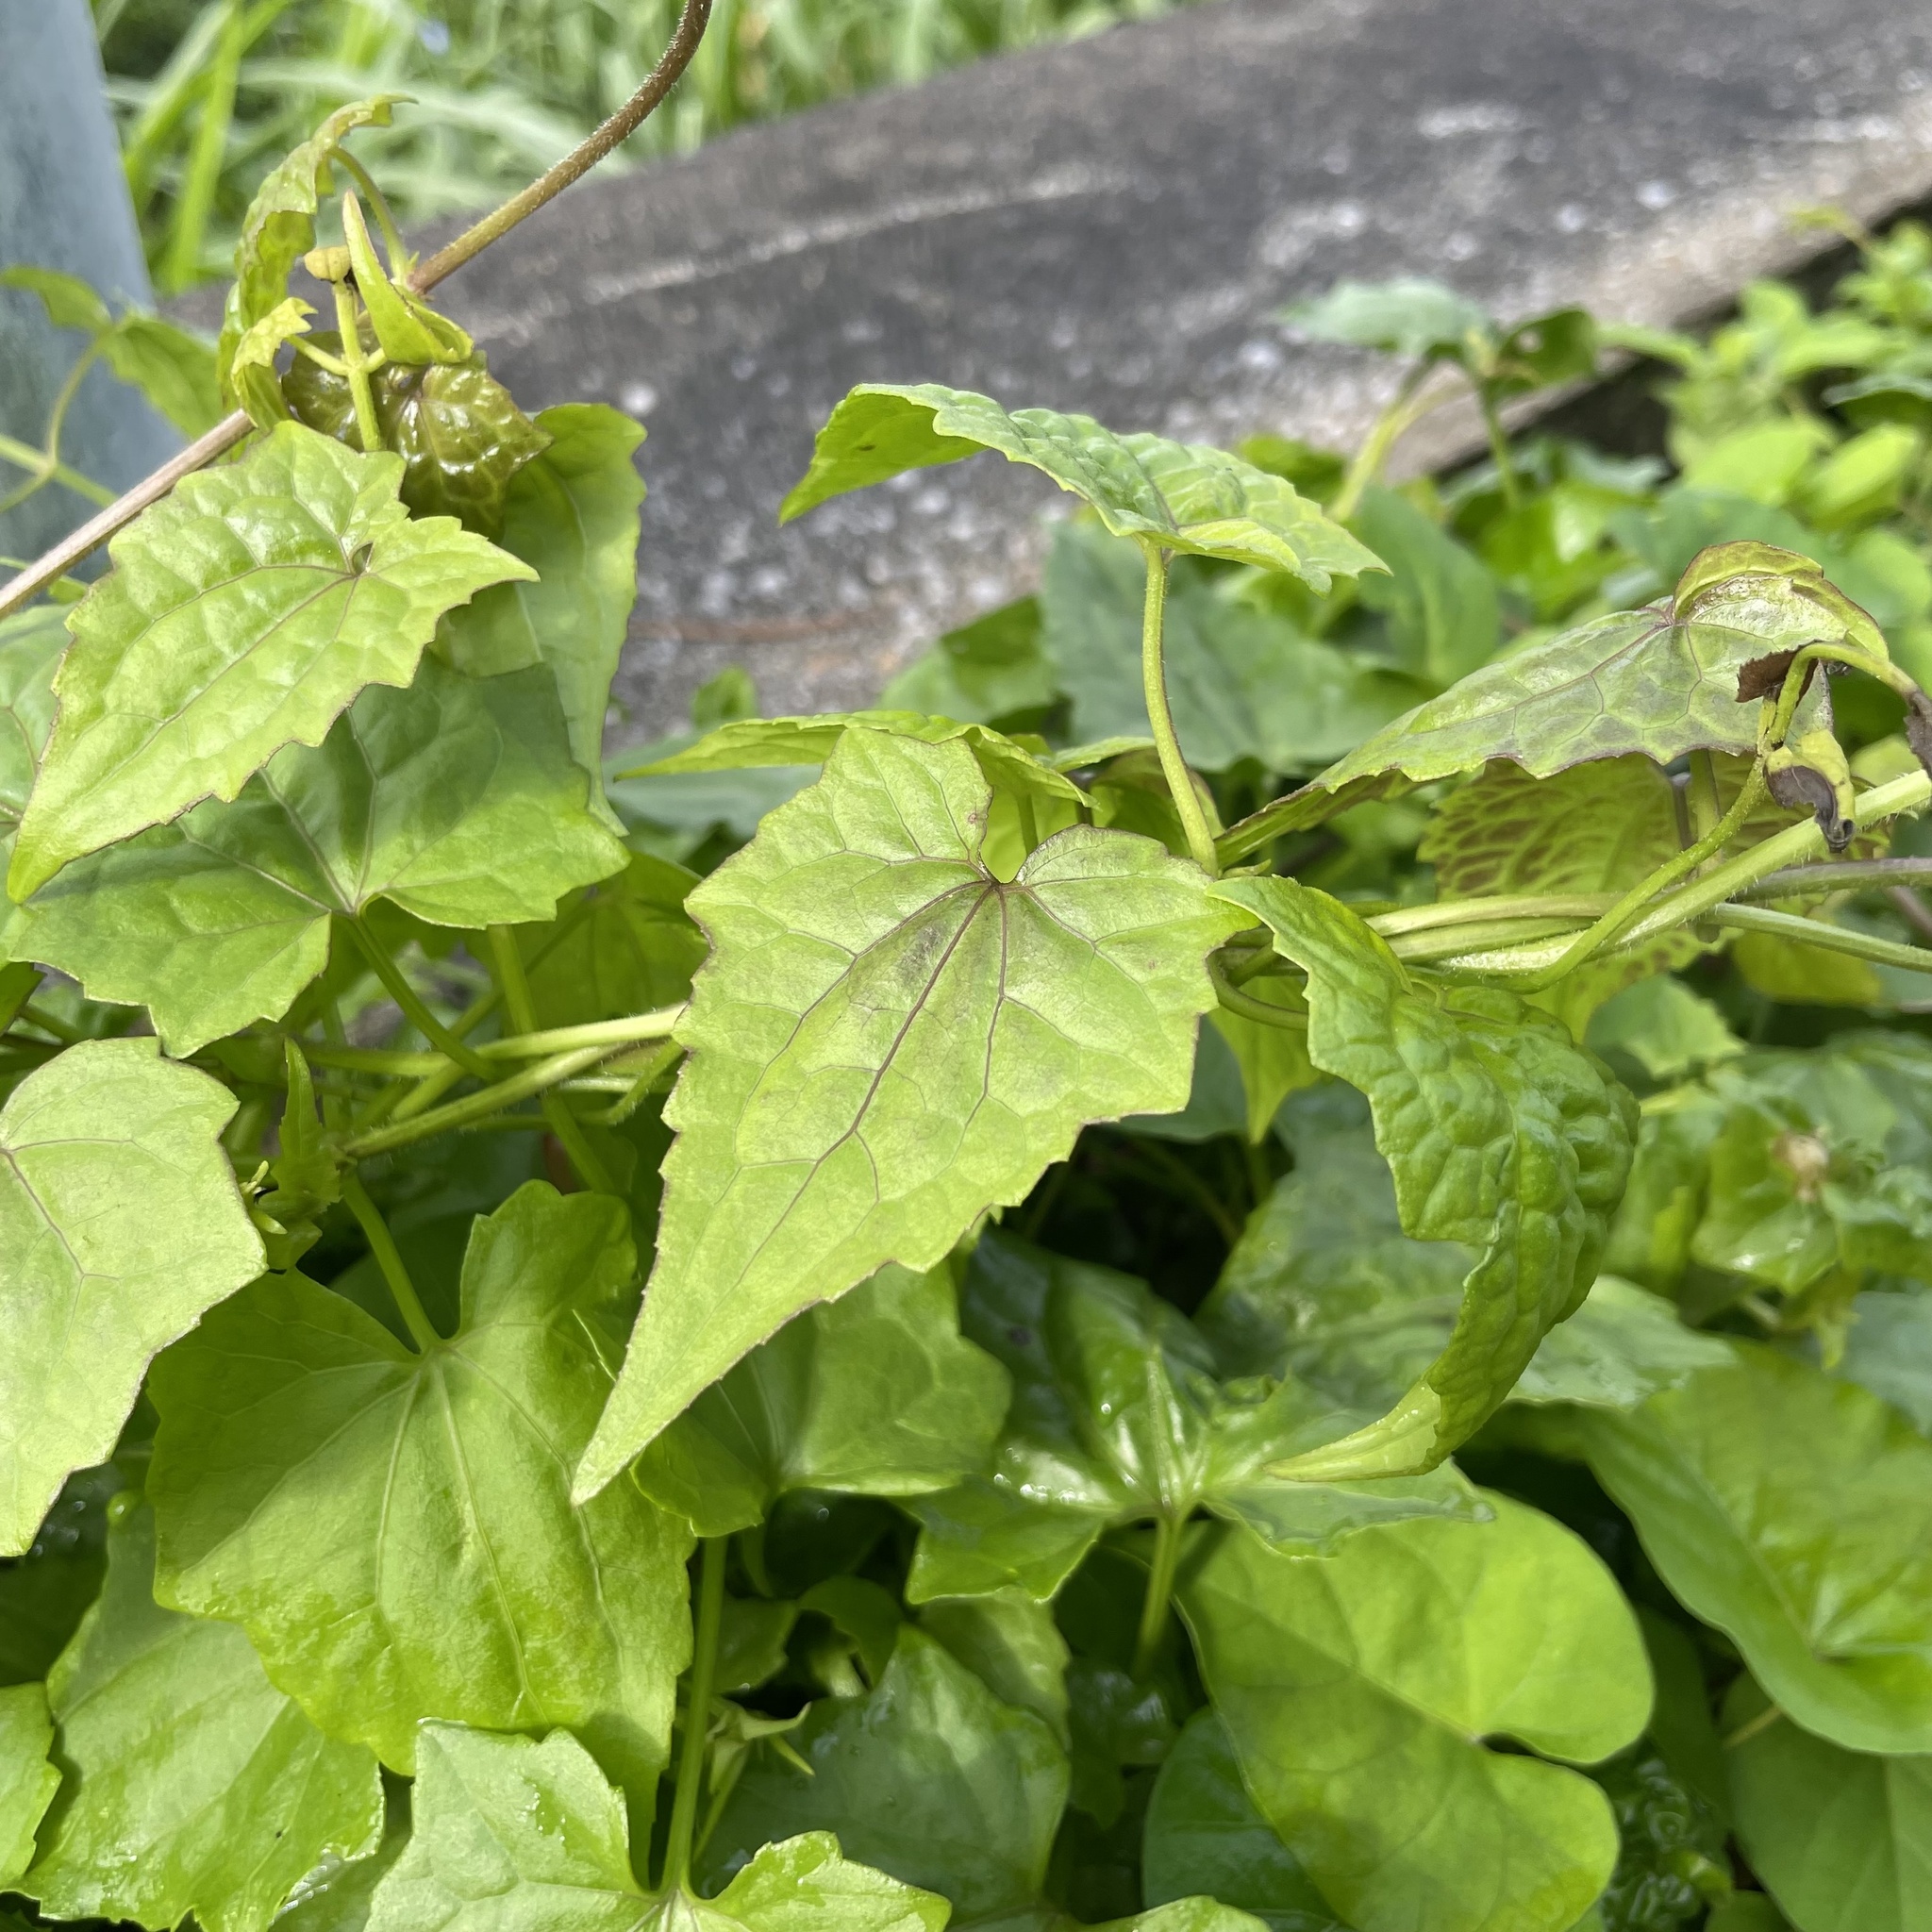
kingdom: Plantae
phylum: Tracheophyta
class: Magnoliopsida
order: Asterales
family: Asteraceae
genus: Mikania
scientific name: Mikania micrantha
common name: Mile-a-minute
